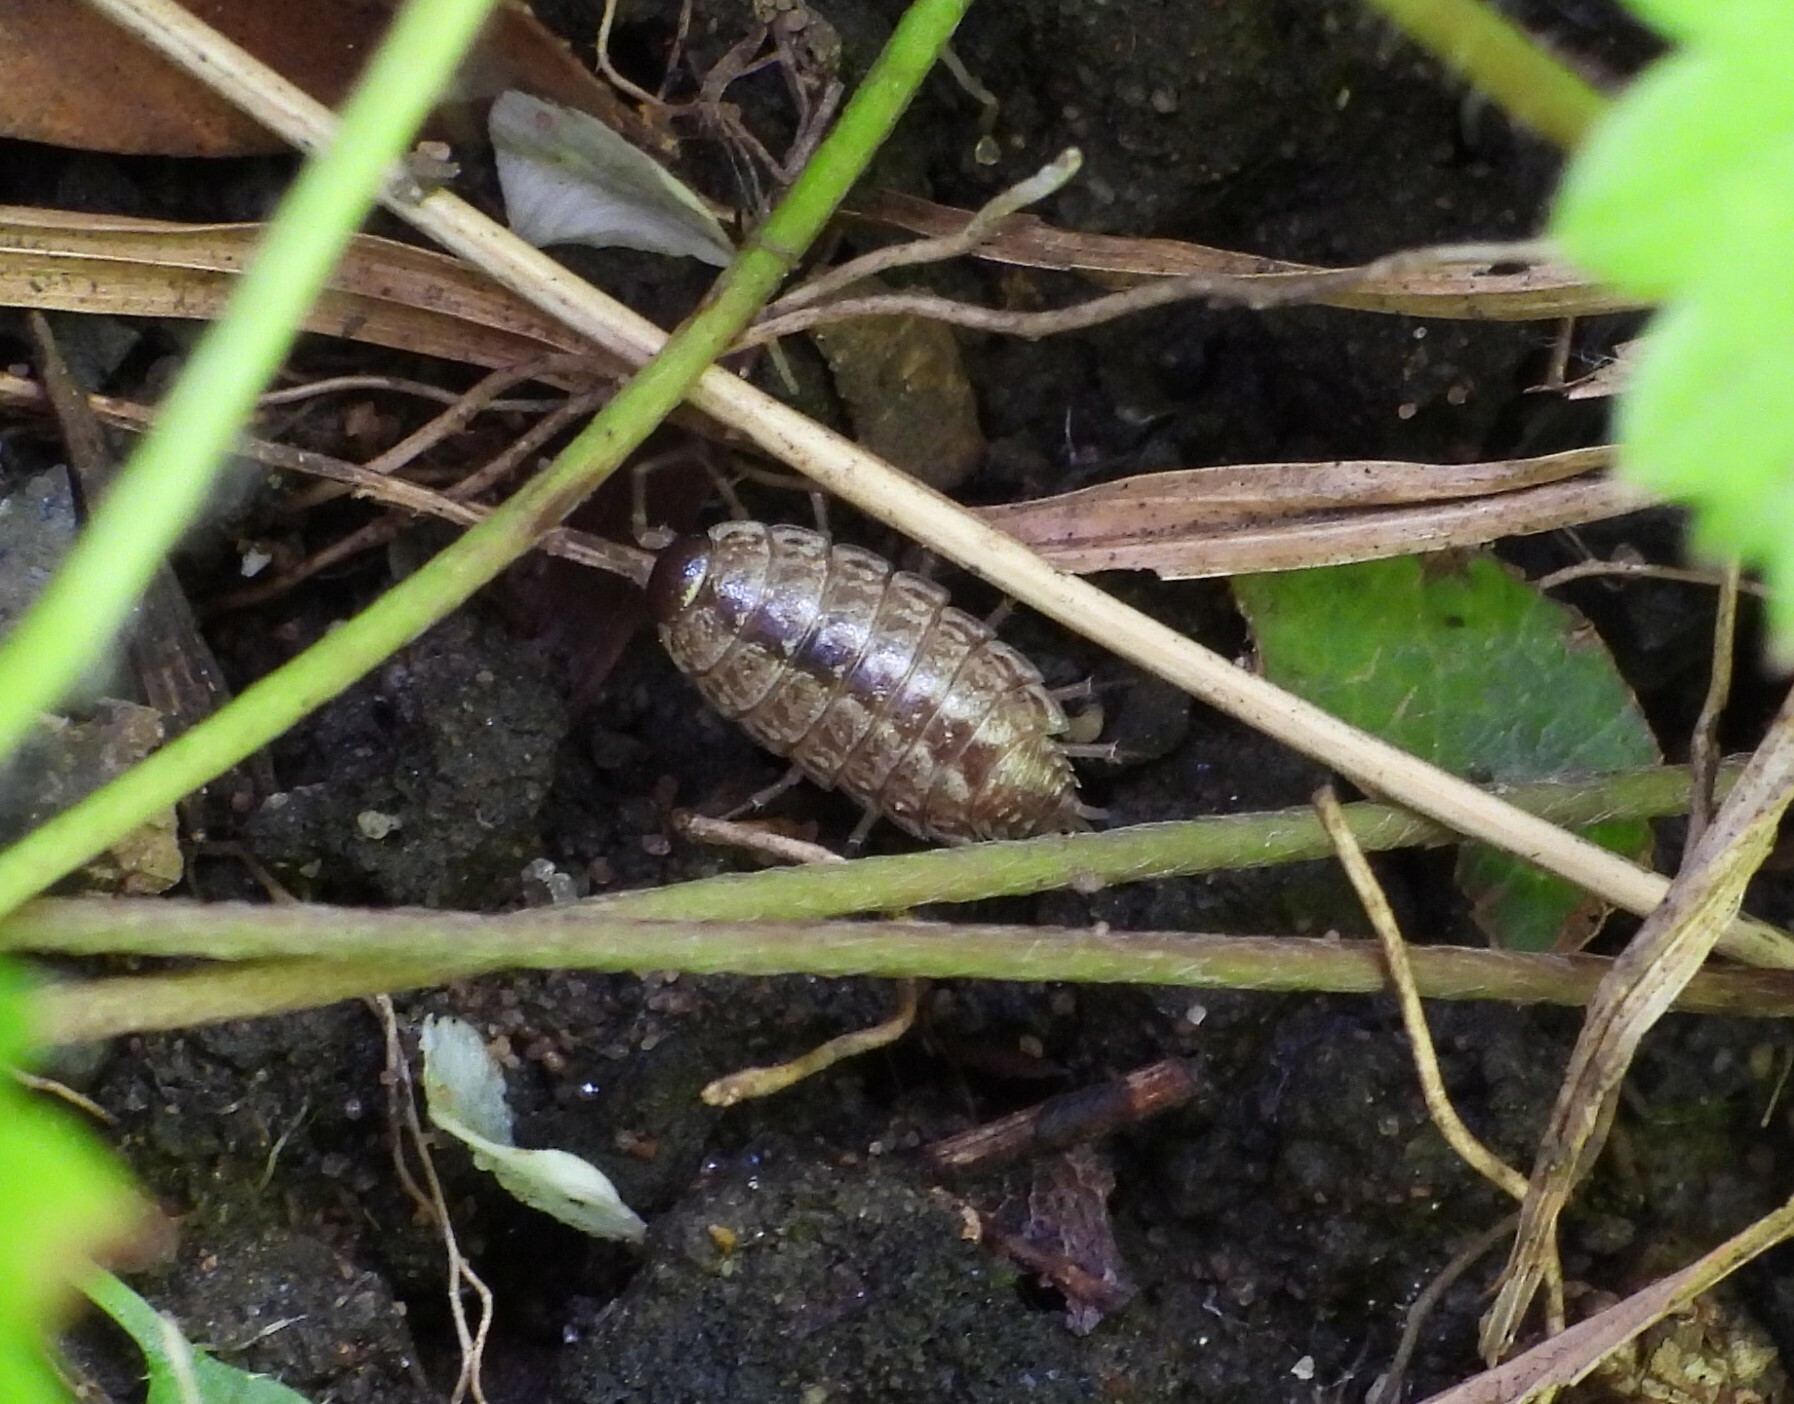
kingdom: Animalia
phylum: Arthropoda
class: Malacostraca
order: Isopoda
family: Philosciidae
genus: Philoscia
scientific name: Philoscia muscorum
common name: Common striped woodlouse
